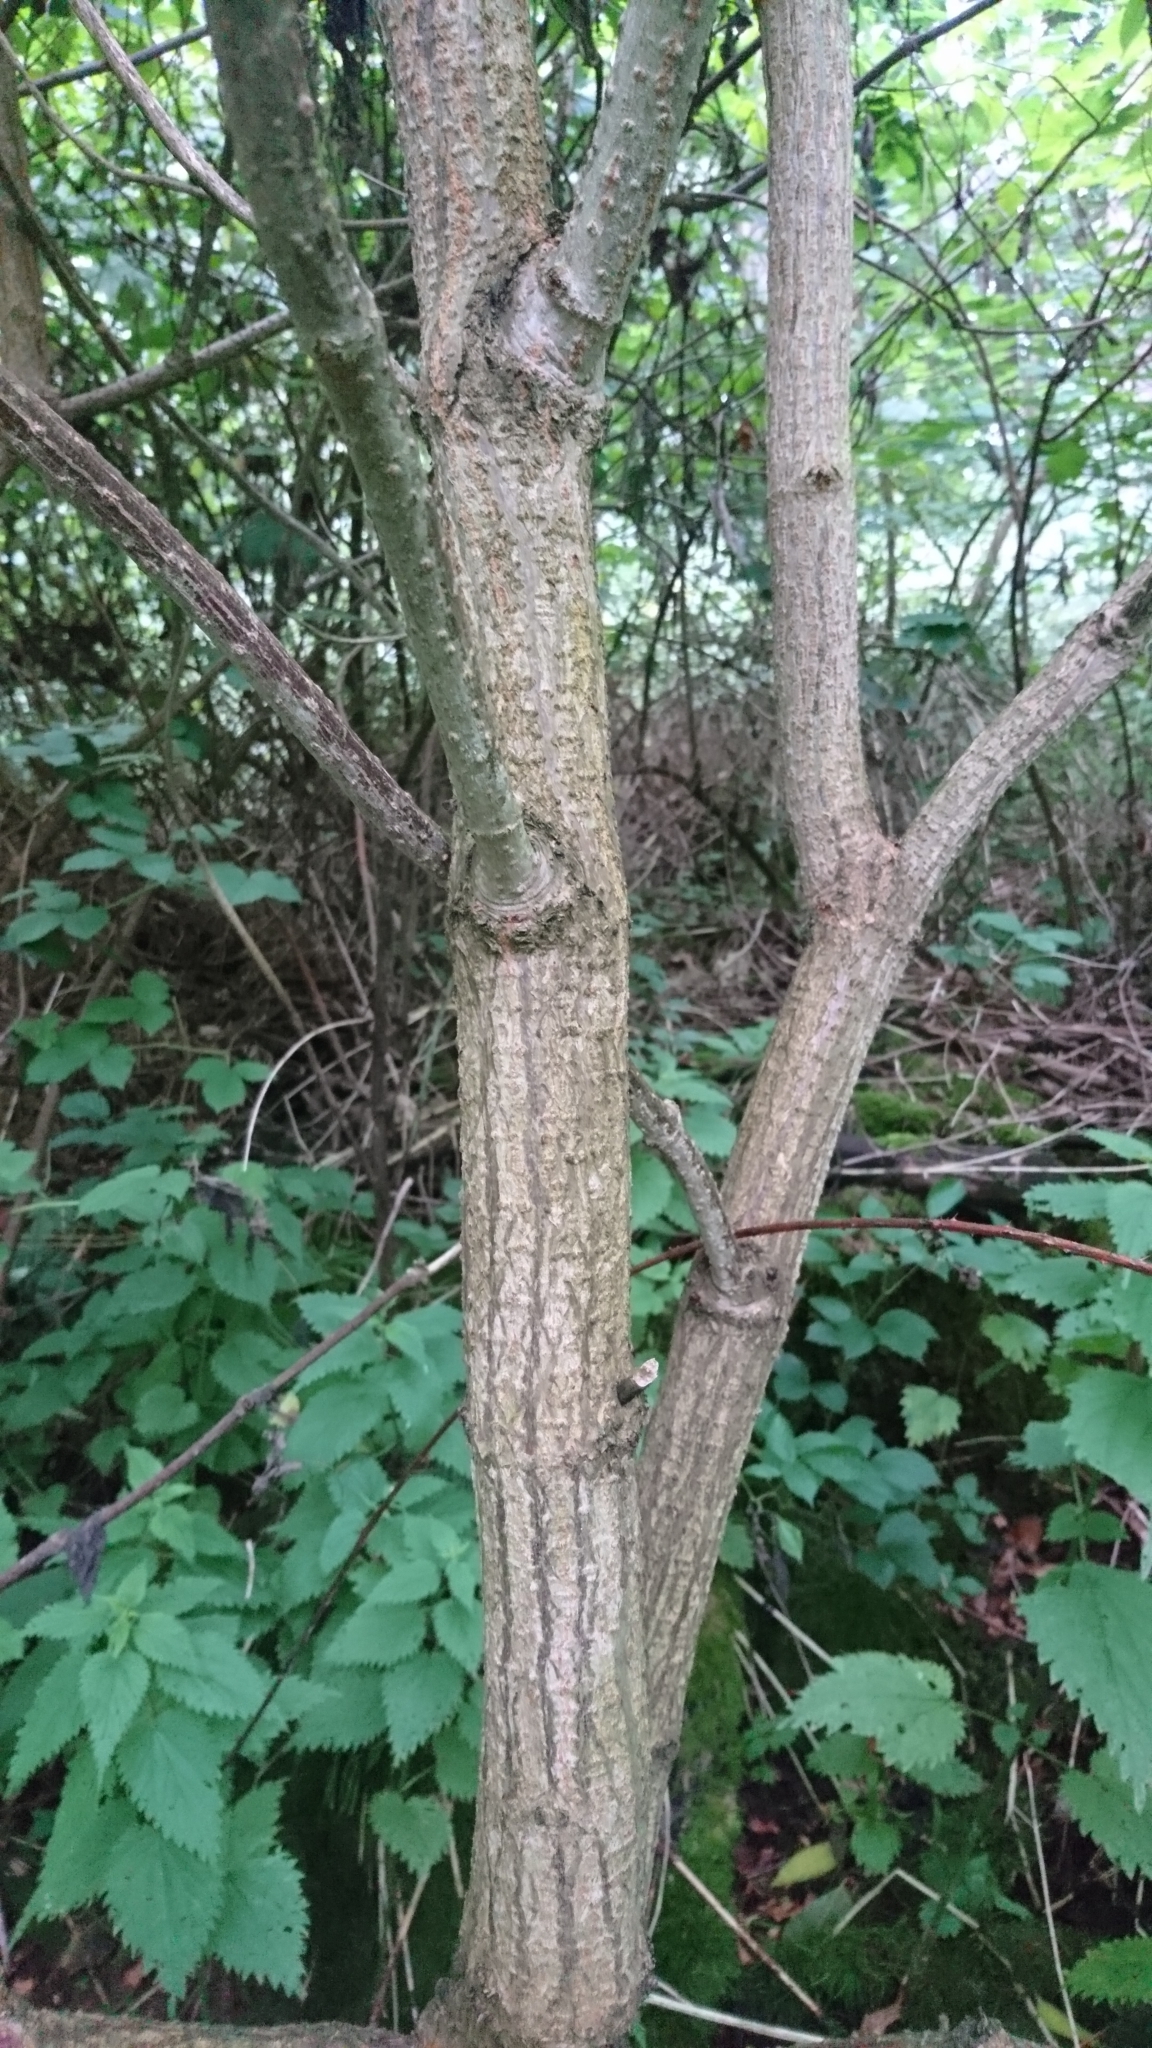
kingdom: Plantae
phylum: Tracheophyta
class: Magnoliopsida
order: Dipsacales
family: Viburnaceae
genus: Sambucus
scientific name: Sambucus racemosa
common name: Red-berried elder
